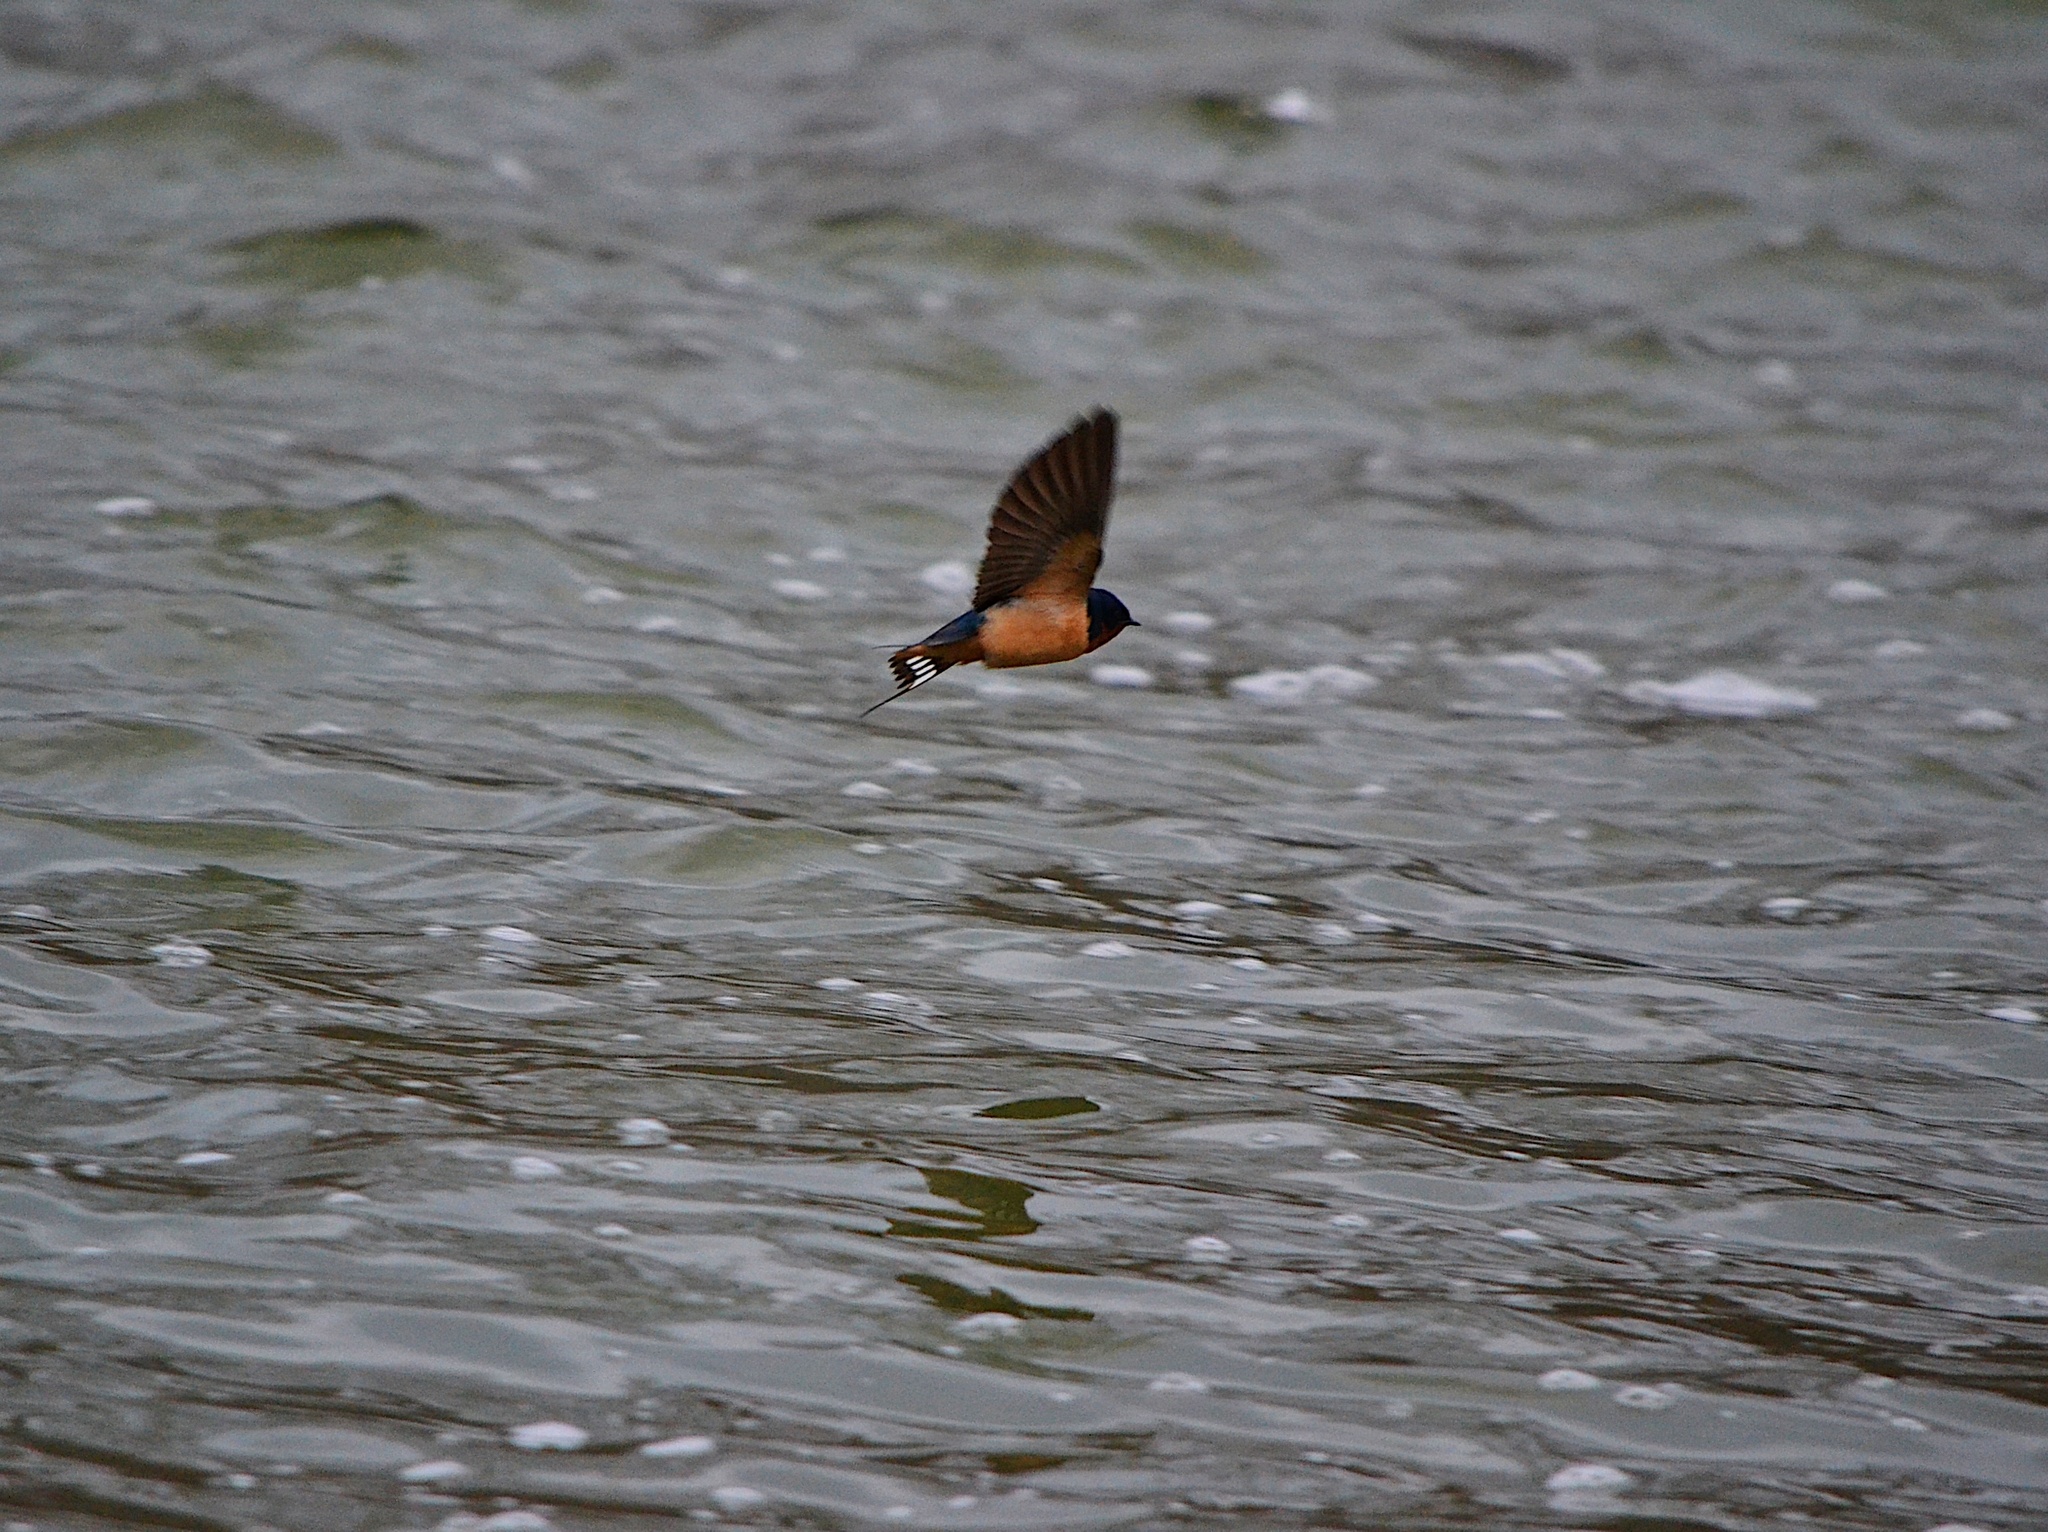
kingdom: Animalia
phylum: Chordata
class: Aves
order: Passeriformes
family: Hirundinidae
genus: Hirundo
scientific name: Hirundo rustica
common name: Barn swallow
